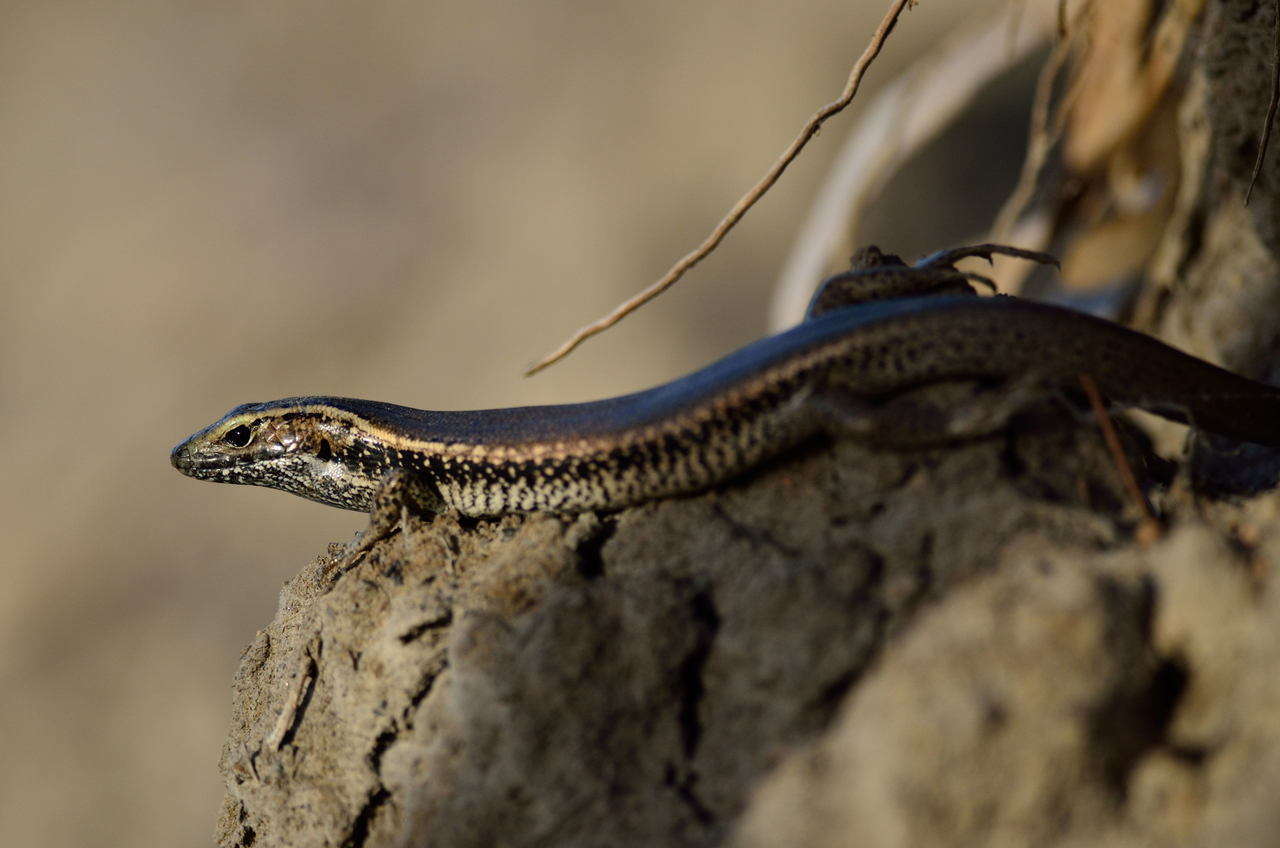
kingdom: Animalia
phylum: Chordata
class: Squamata
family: Scincidae
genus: Eulamprus
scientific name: Eulamprus quoyii
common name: Eastern water skink
